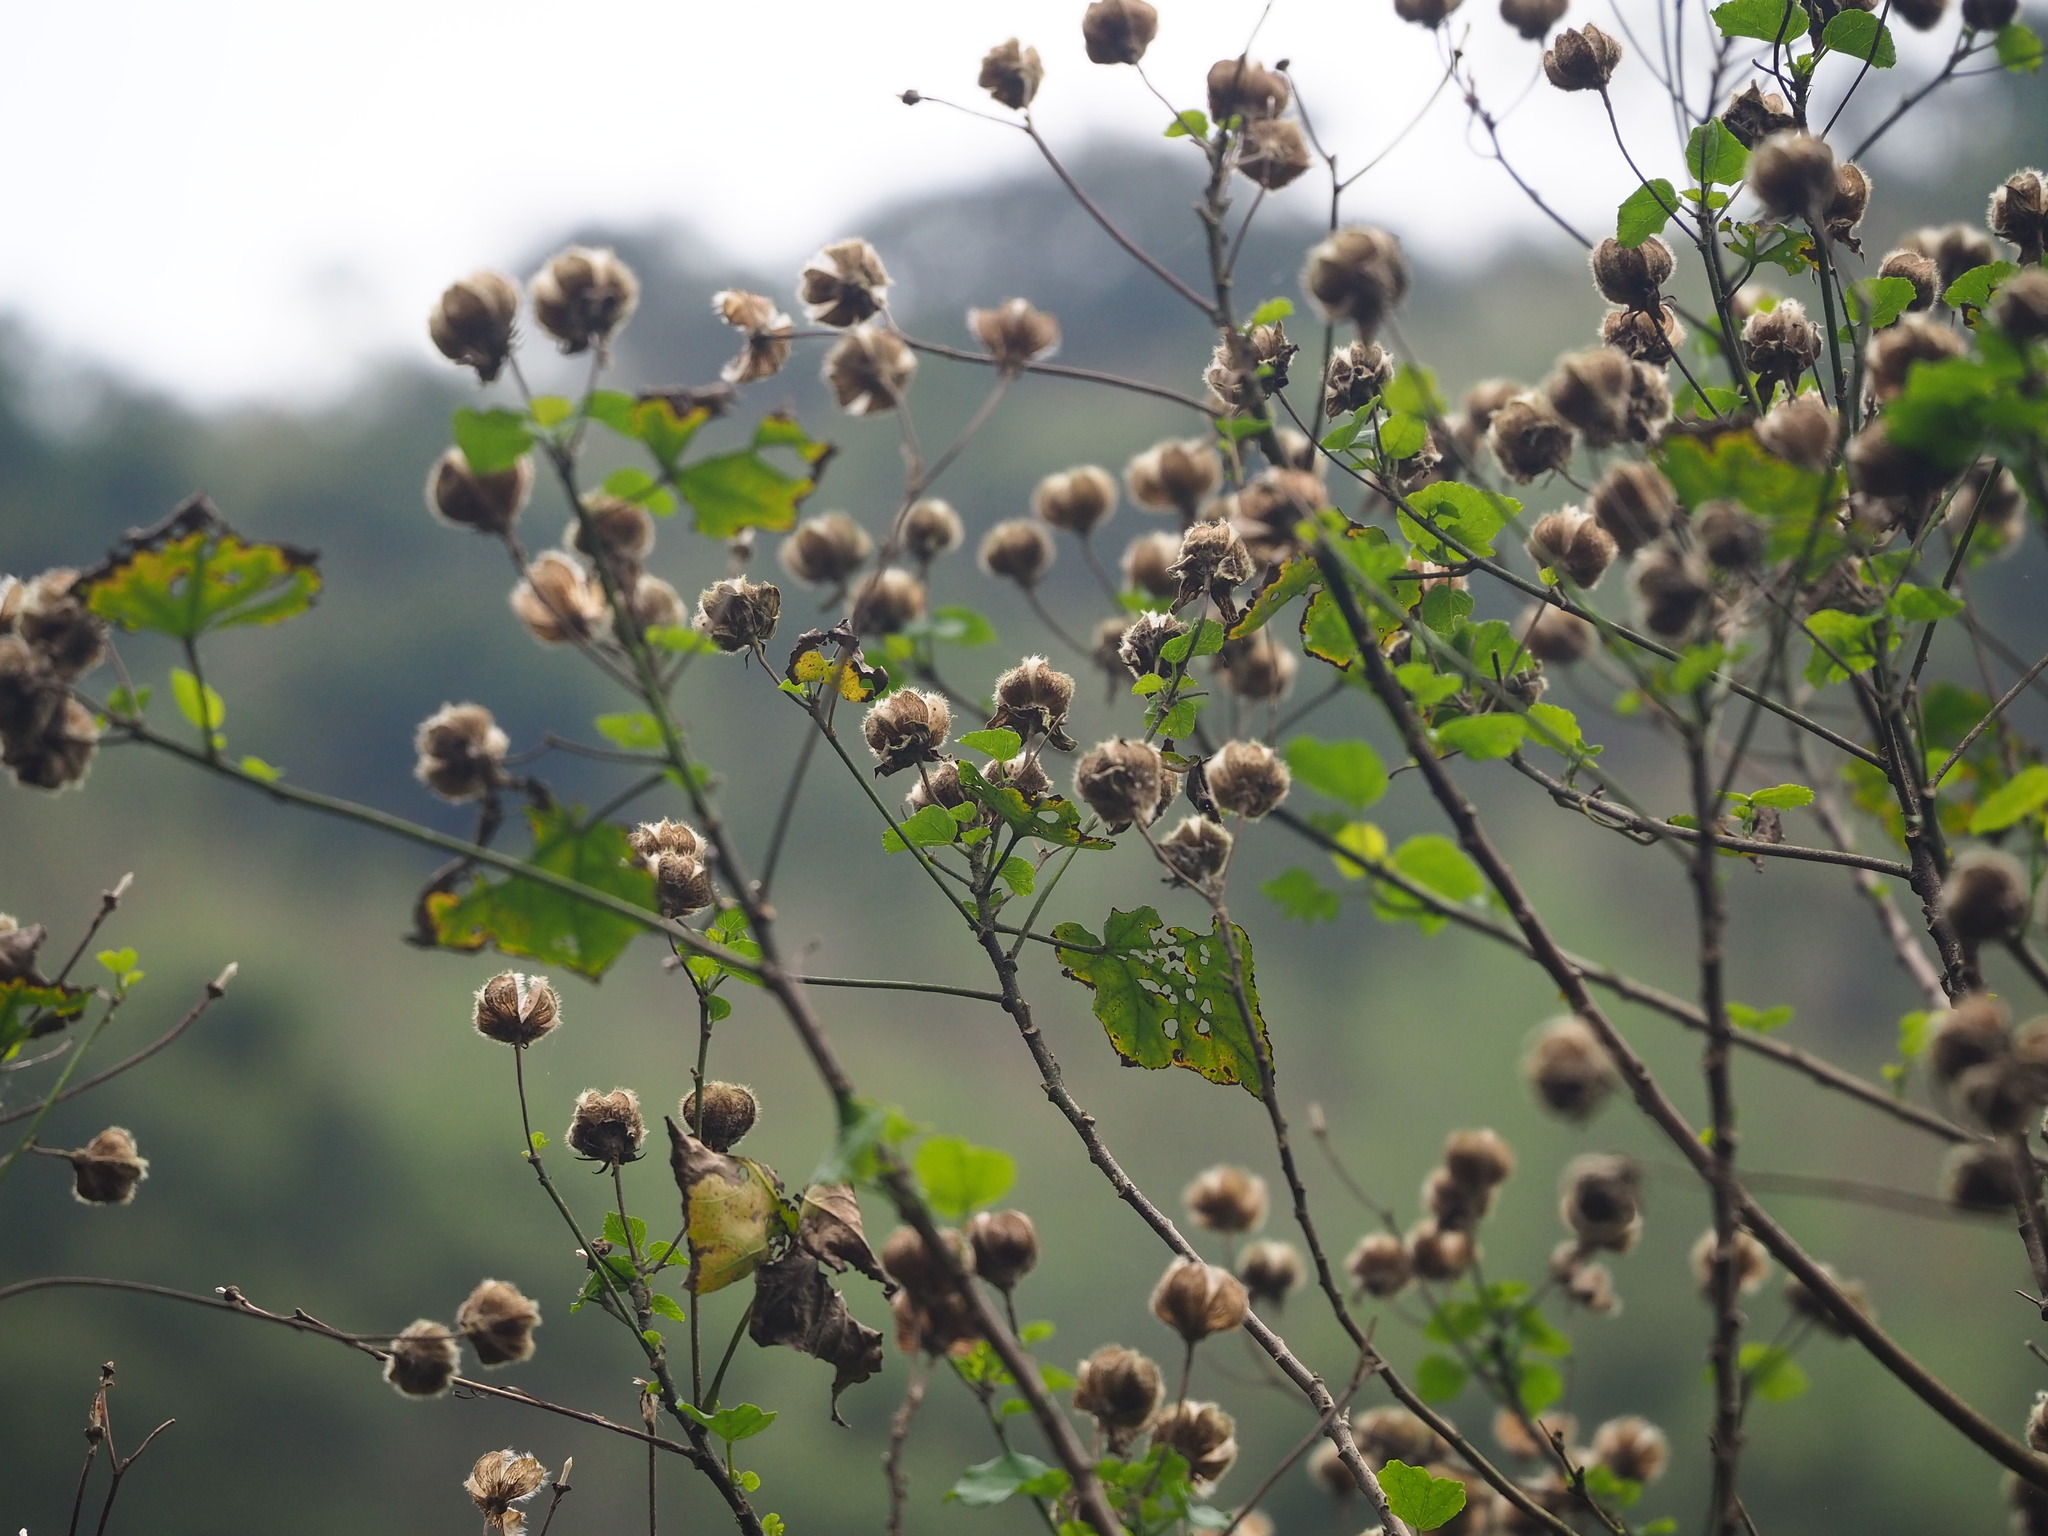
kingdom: Plantae
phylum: Tracheophyta
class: Magnoliopsida
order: Malvales
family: Malvaceae
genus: Hibiscus
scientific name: Hibiscus taiwanensis
